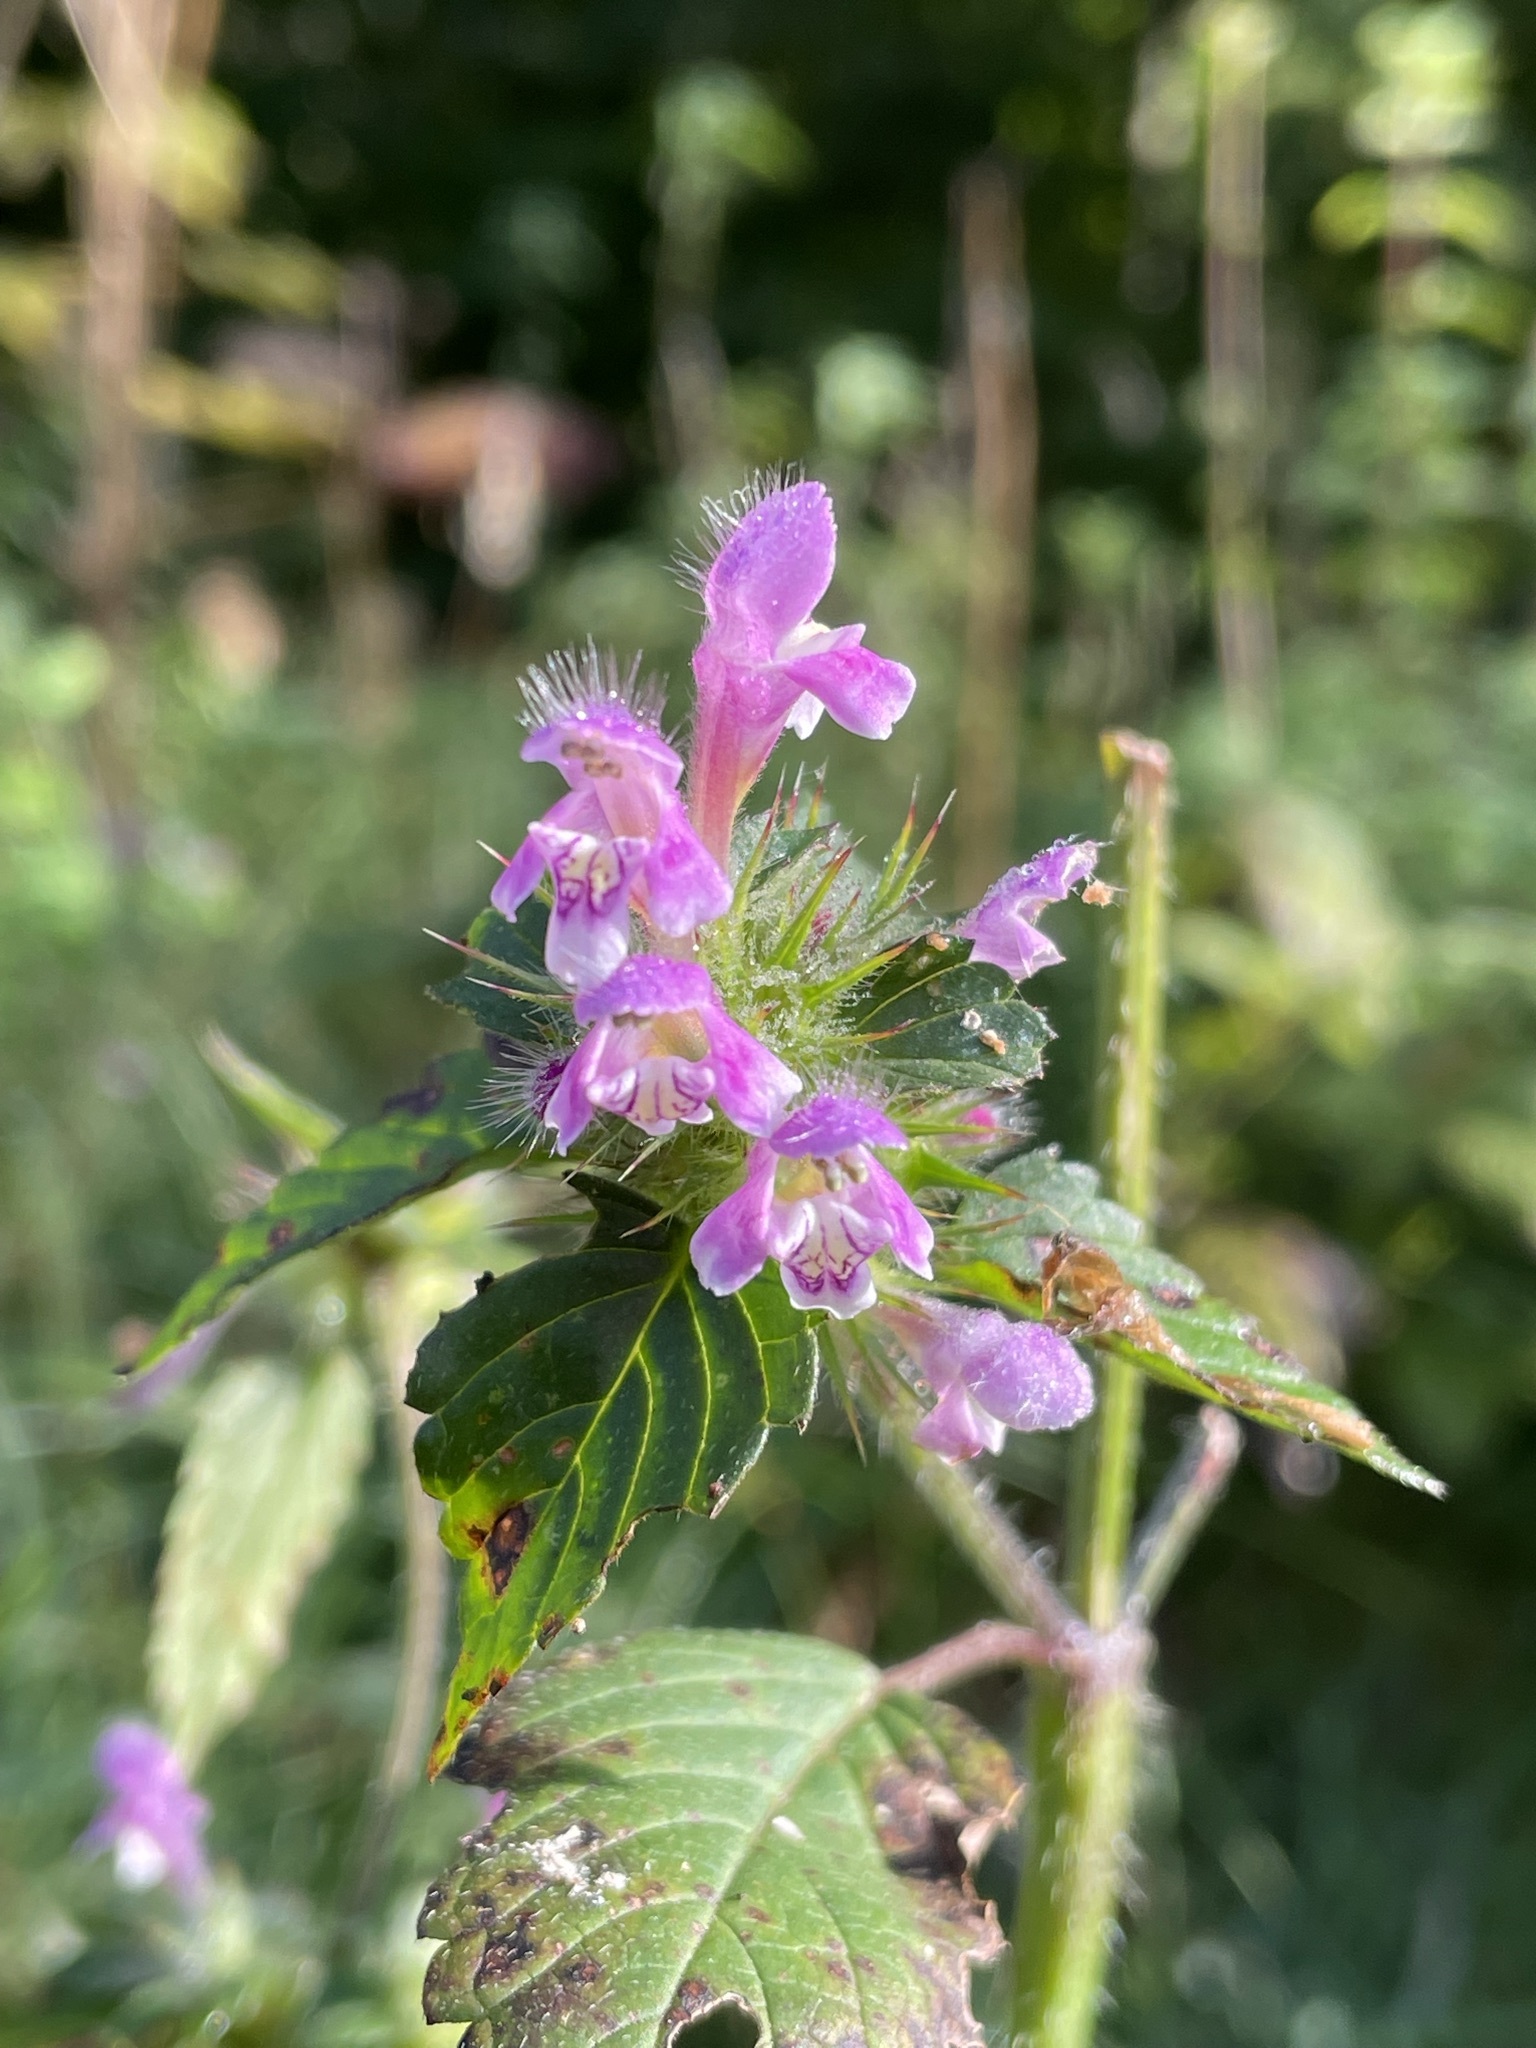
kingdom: Plantae
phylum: Tracheophyta
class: Magnoliopsida
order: Lamiales
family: Lamiaceae
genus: Galeopsis
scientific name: Galeopsis tetrahit
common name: Common hemp-nettle
